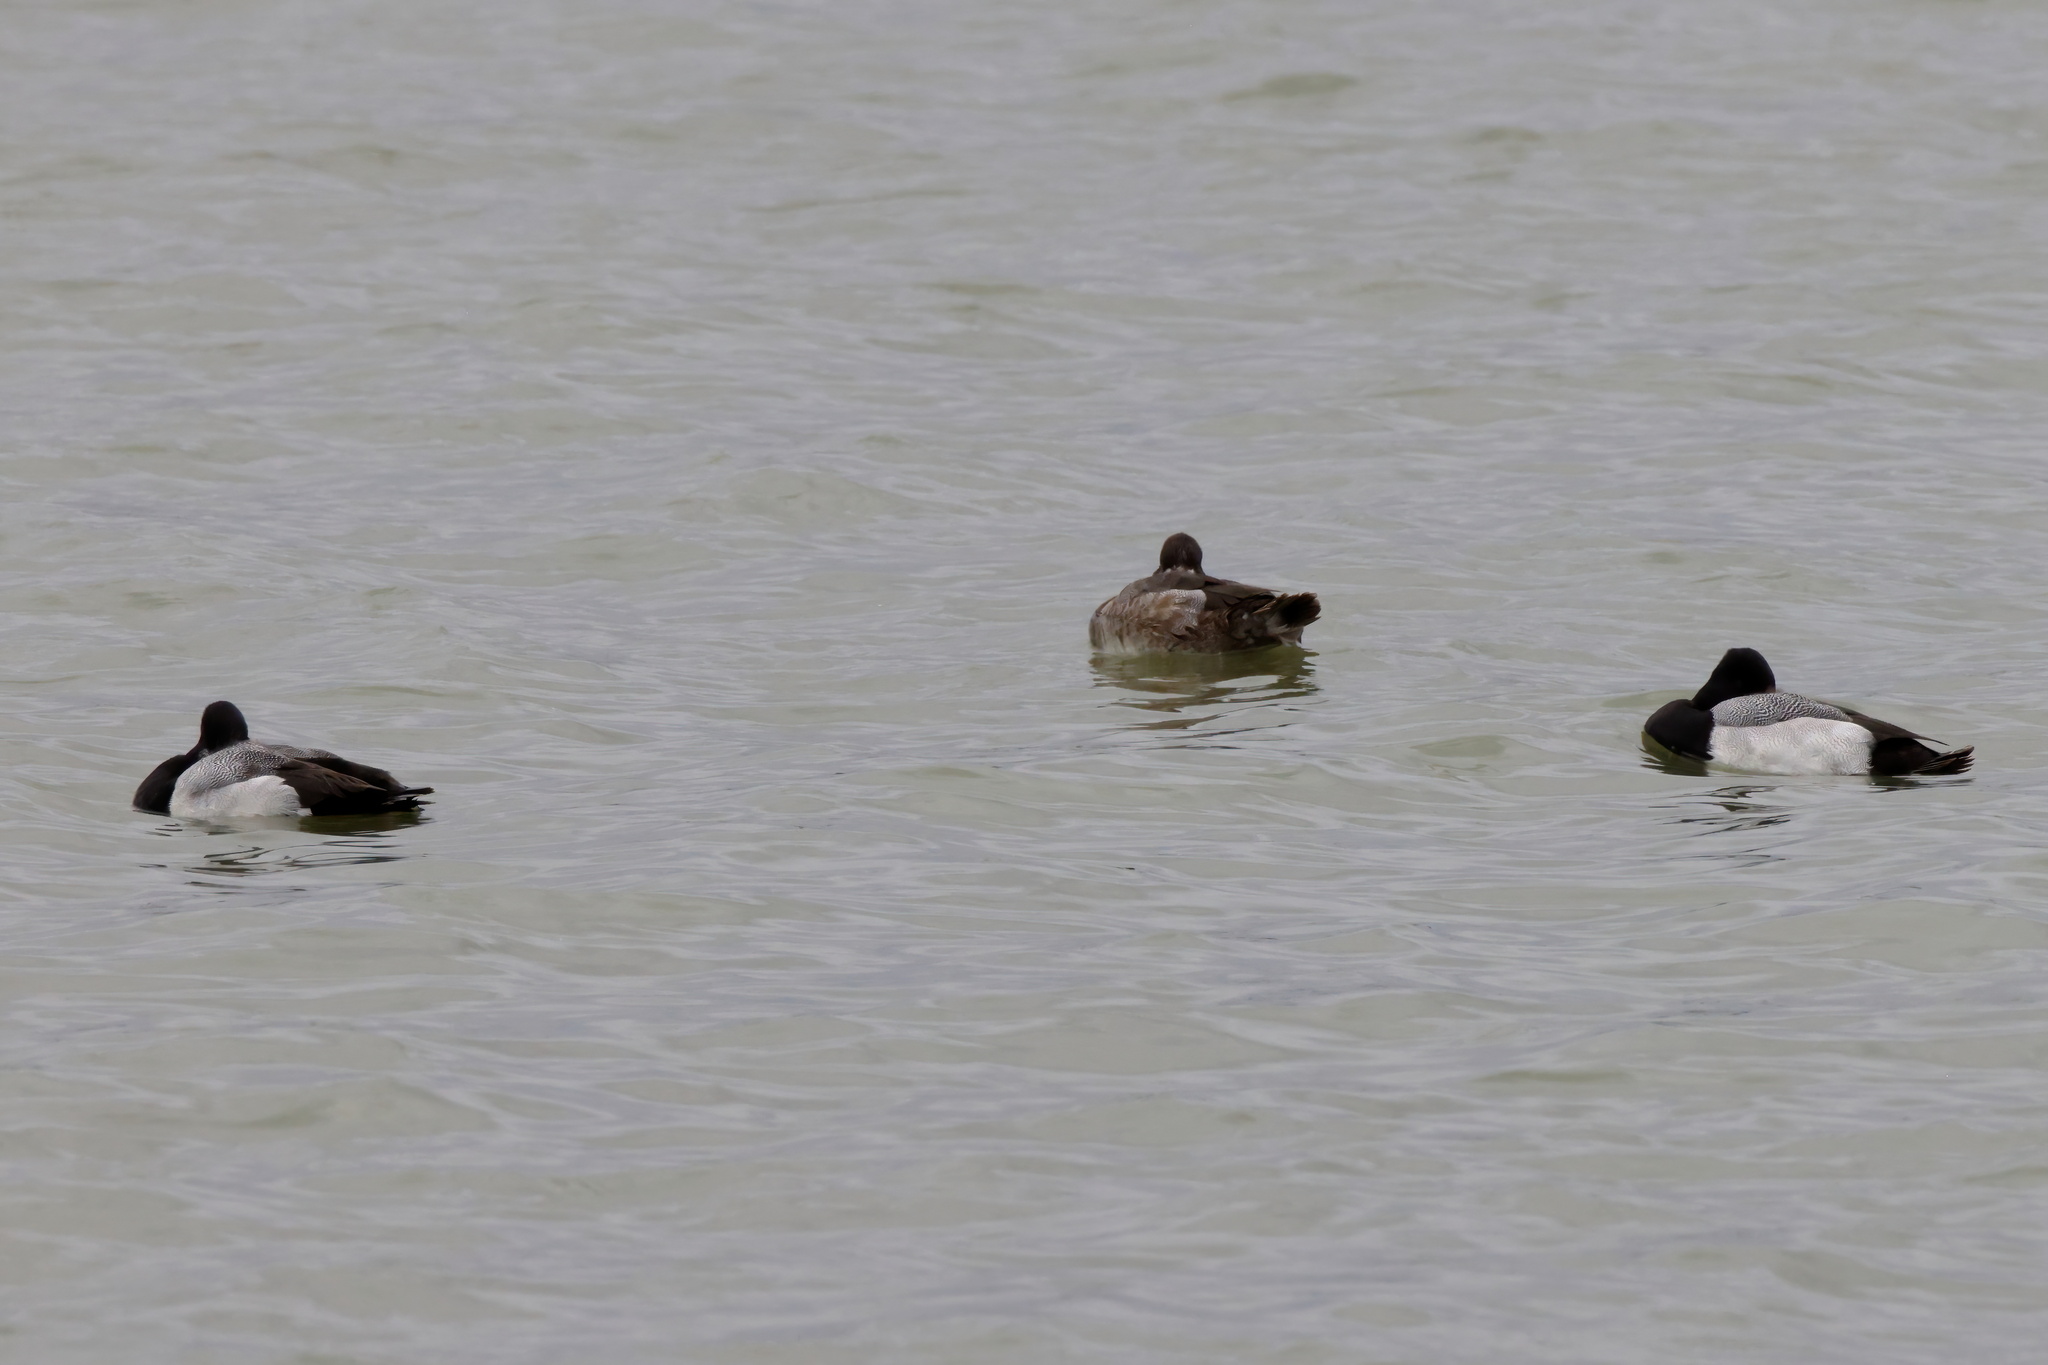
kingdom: Animalia
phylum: Chordata
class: Aves
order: Anseriformes
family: Anatidae
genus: Aythya
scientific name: Aythya affinis
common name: Lesser scaup
